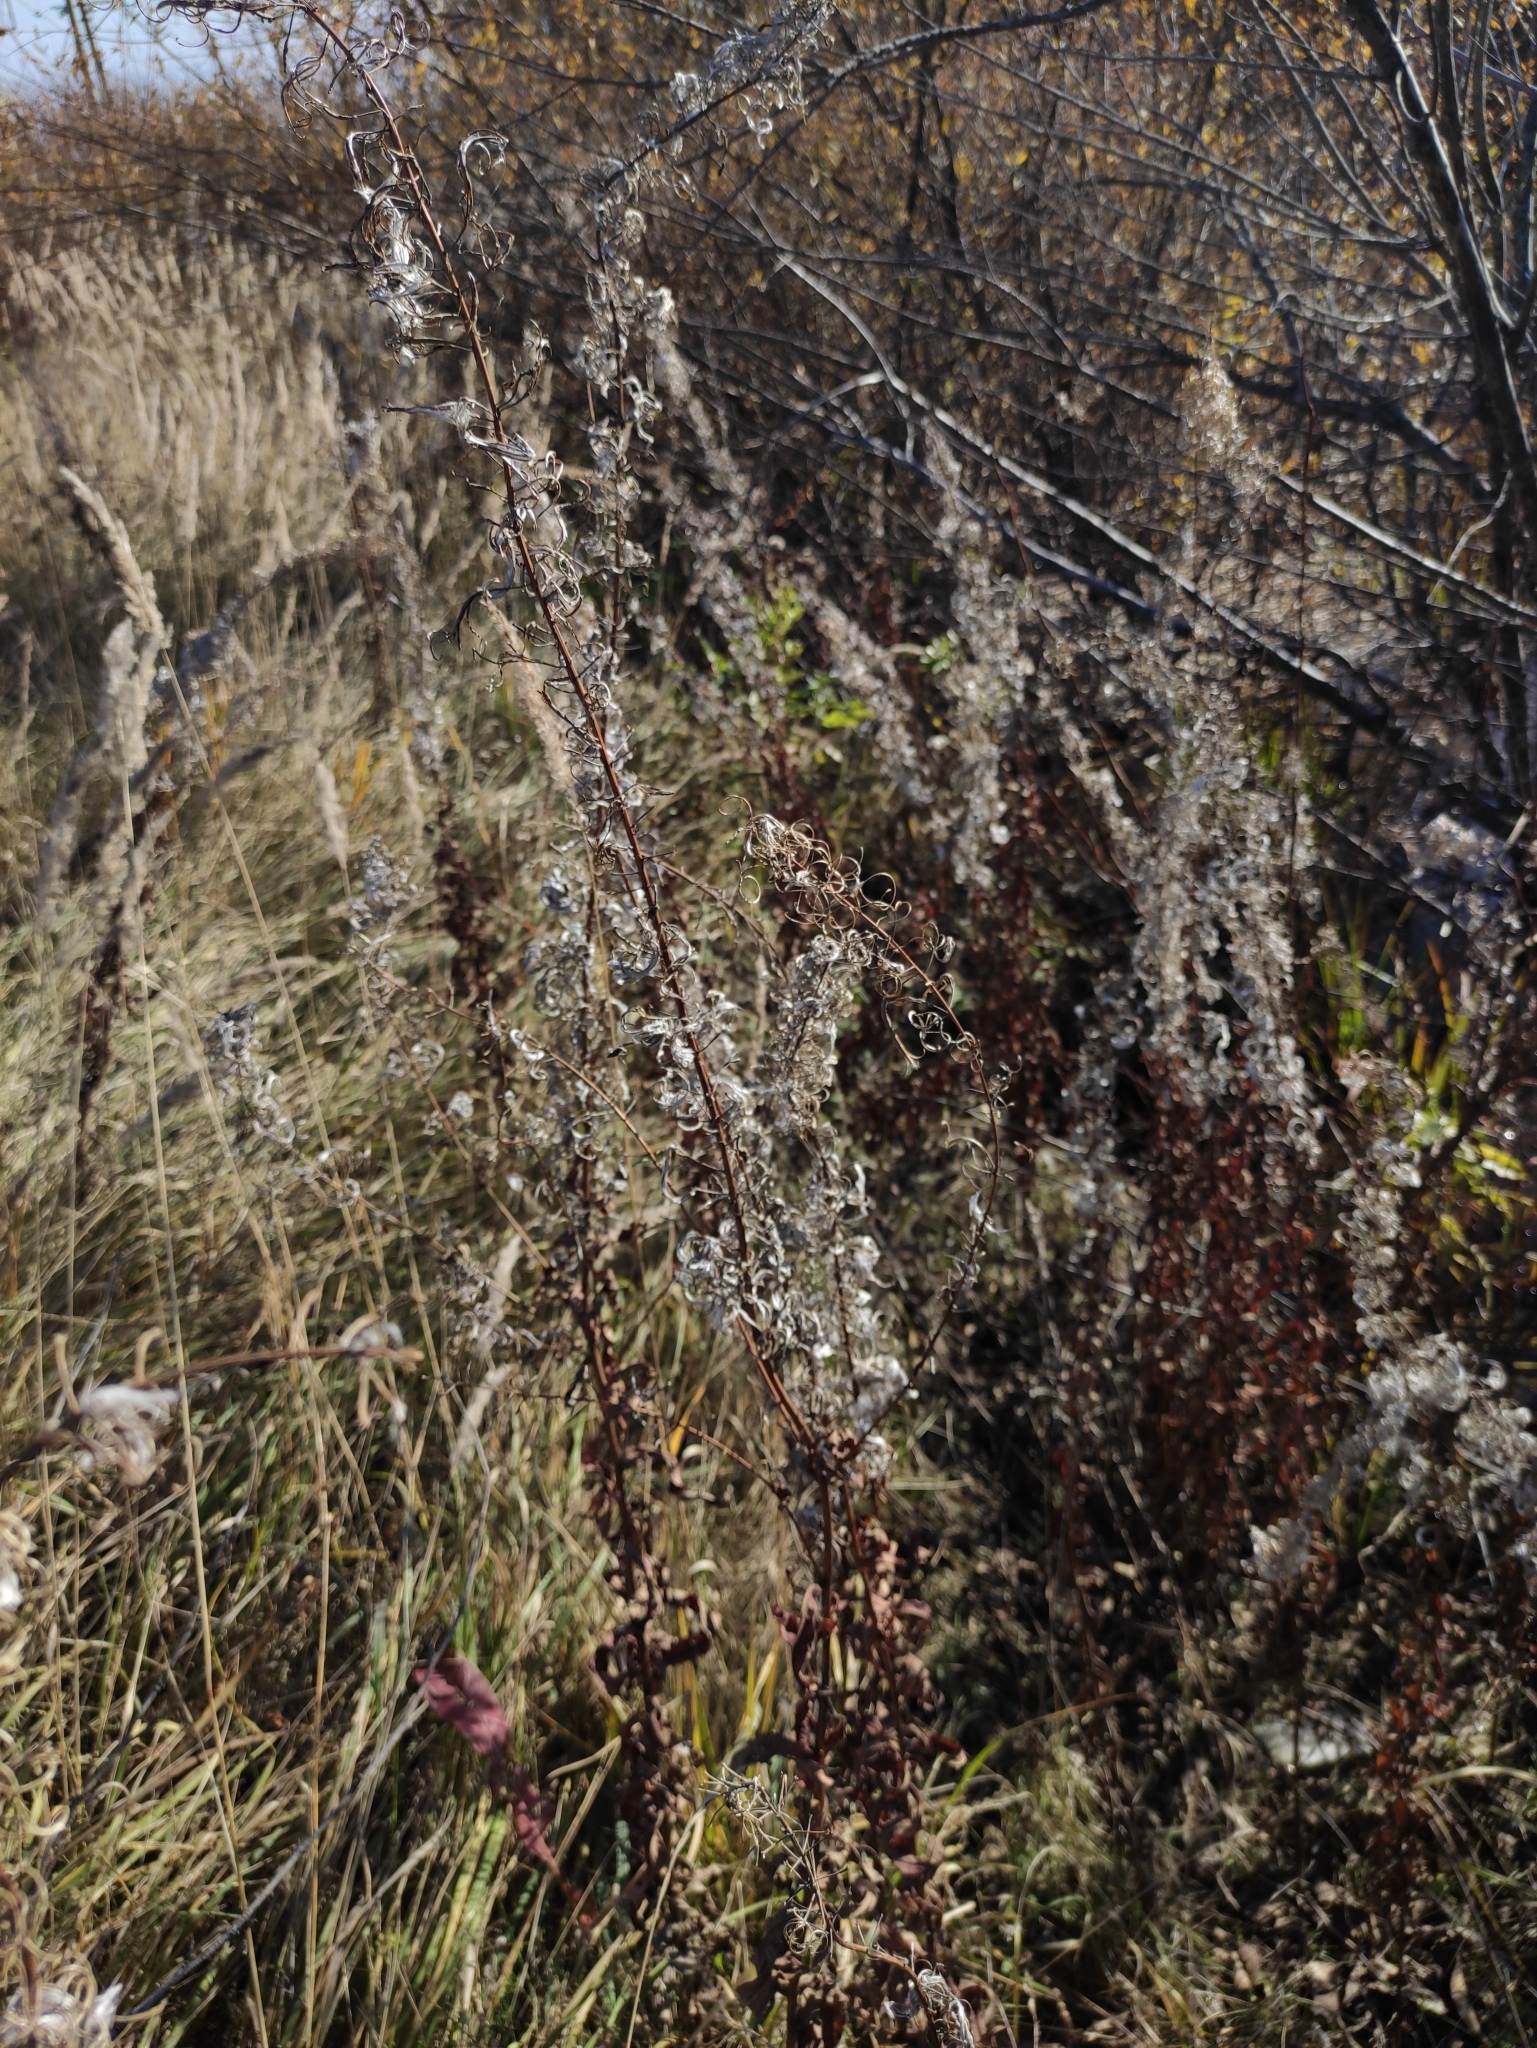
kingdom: Plantae
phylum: Tracheophyta
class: Magnoliopsida
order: Myrtales
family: Onagraceae
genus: Chamaenerion
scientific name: Chamaenerion angustifolium
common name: Fireweed
